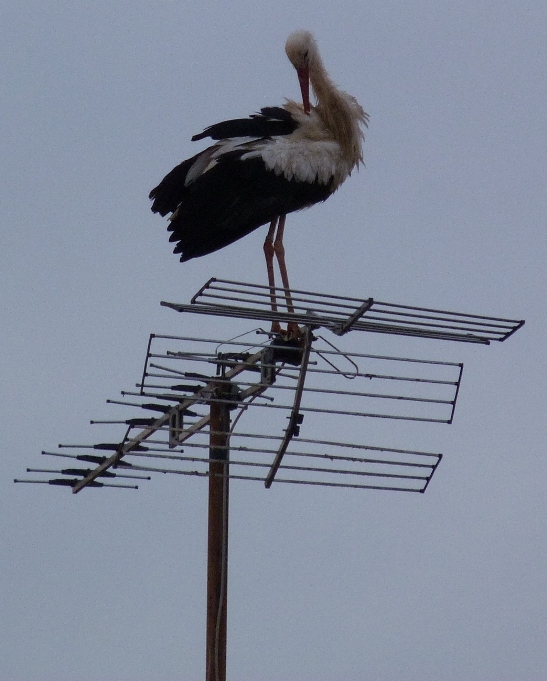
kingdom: Animalia
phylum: Chordata
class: Aves
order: Ciconiiformes
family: Ciconiidae
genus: Ciconia
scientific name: Ciconia ciconia
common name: White stork
